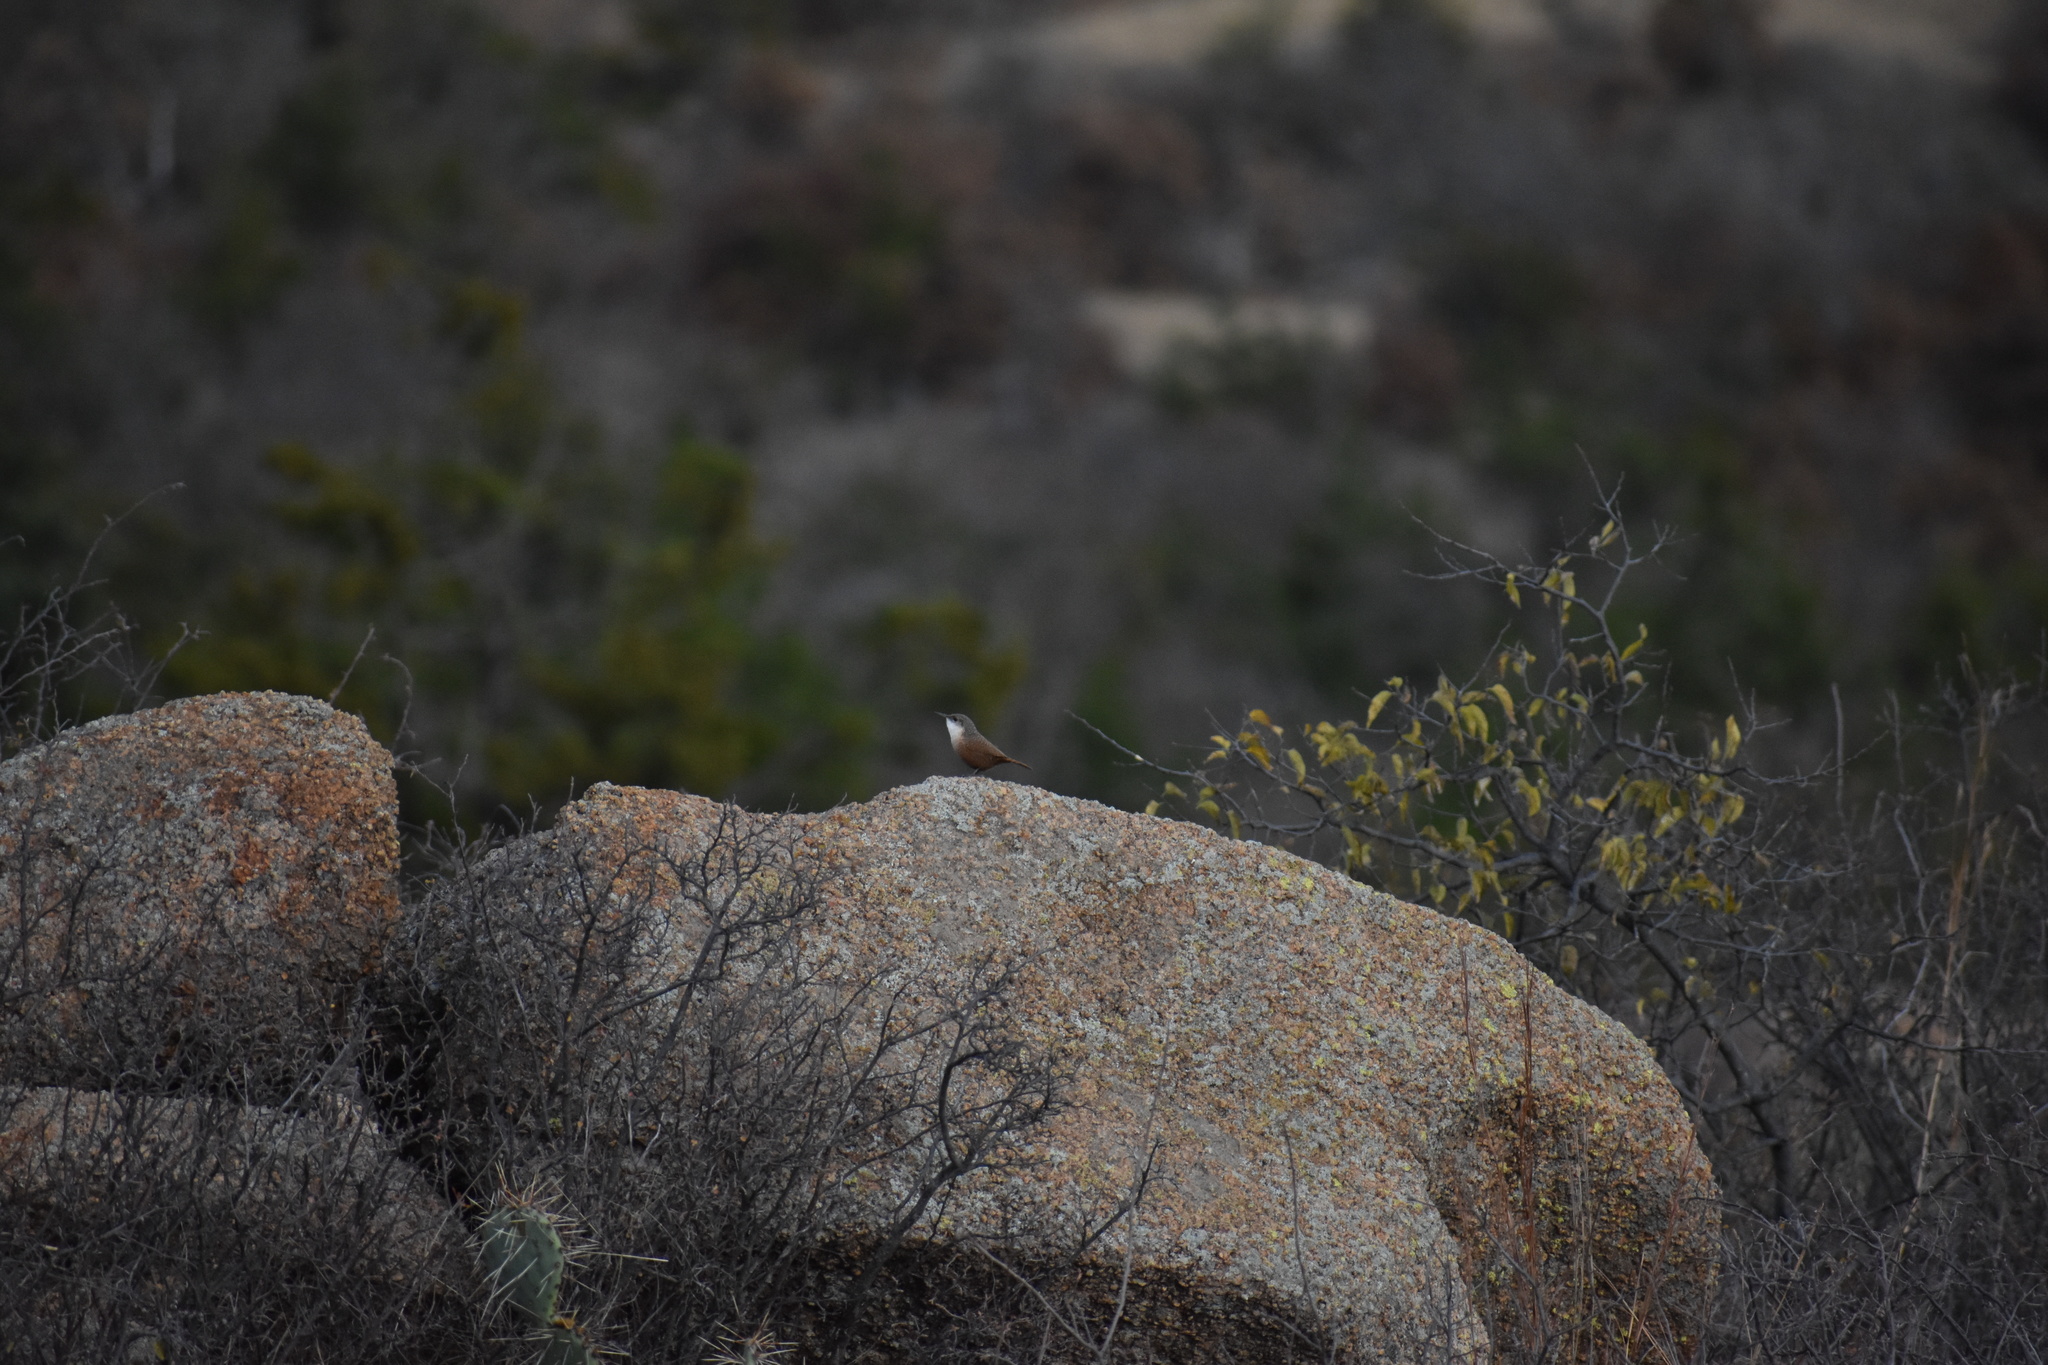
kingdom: Animalia
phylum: Chordata
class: Aves
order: Passeriformes
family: Troglodytidae
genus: Catherpes
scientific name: Catherpes mexicanus
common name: Canyon wren
